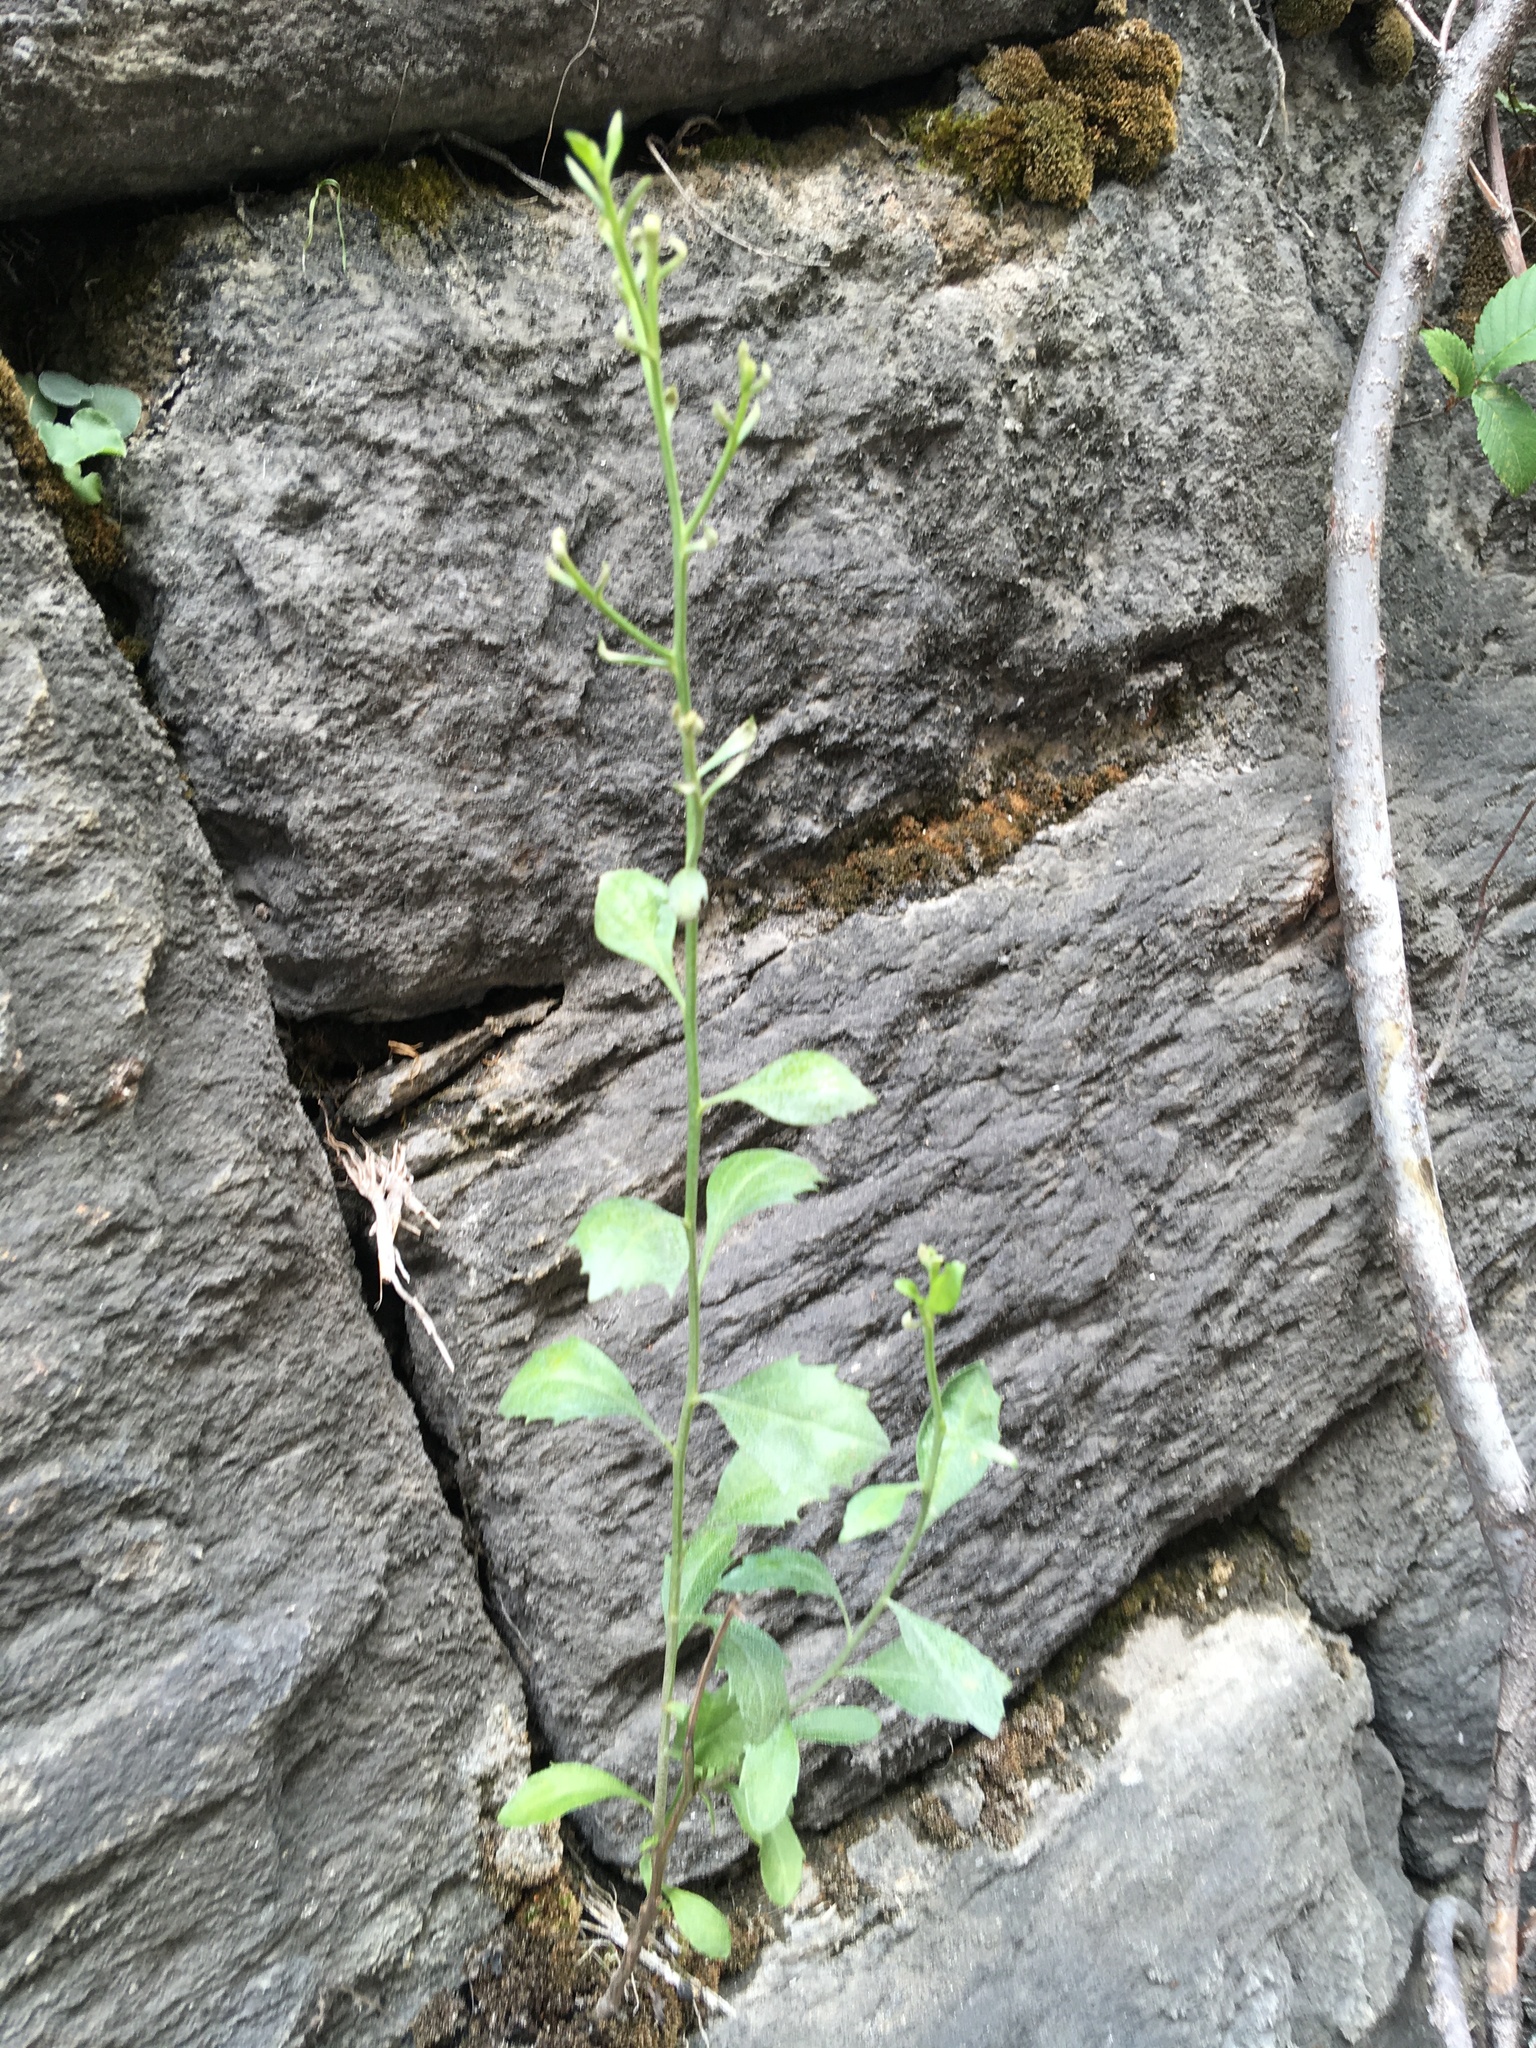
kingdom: Plantae
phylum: Tracheophyta
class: Magnoliopsida
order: Asterales
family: Asteraceae
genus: Baccharis
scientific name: Baccharis halimifolia
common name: Eastern baccharis
